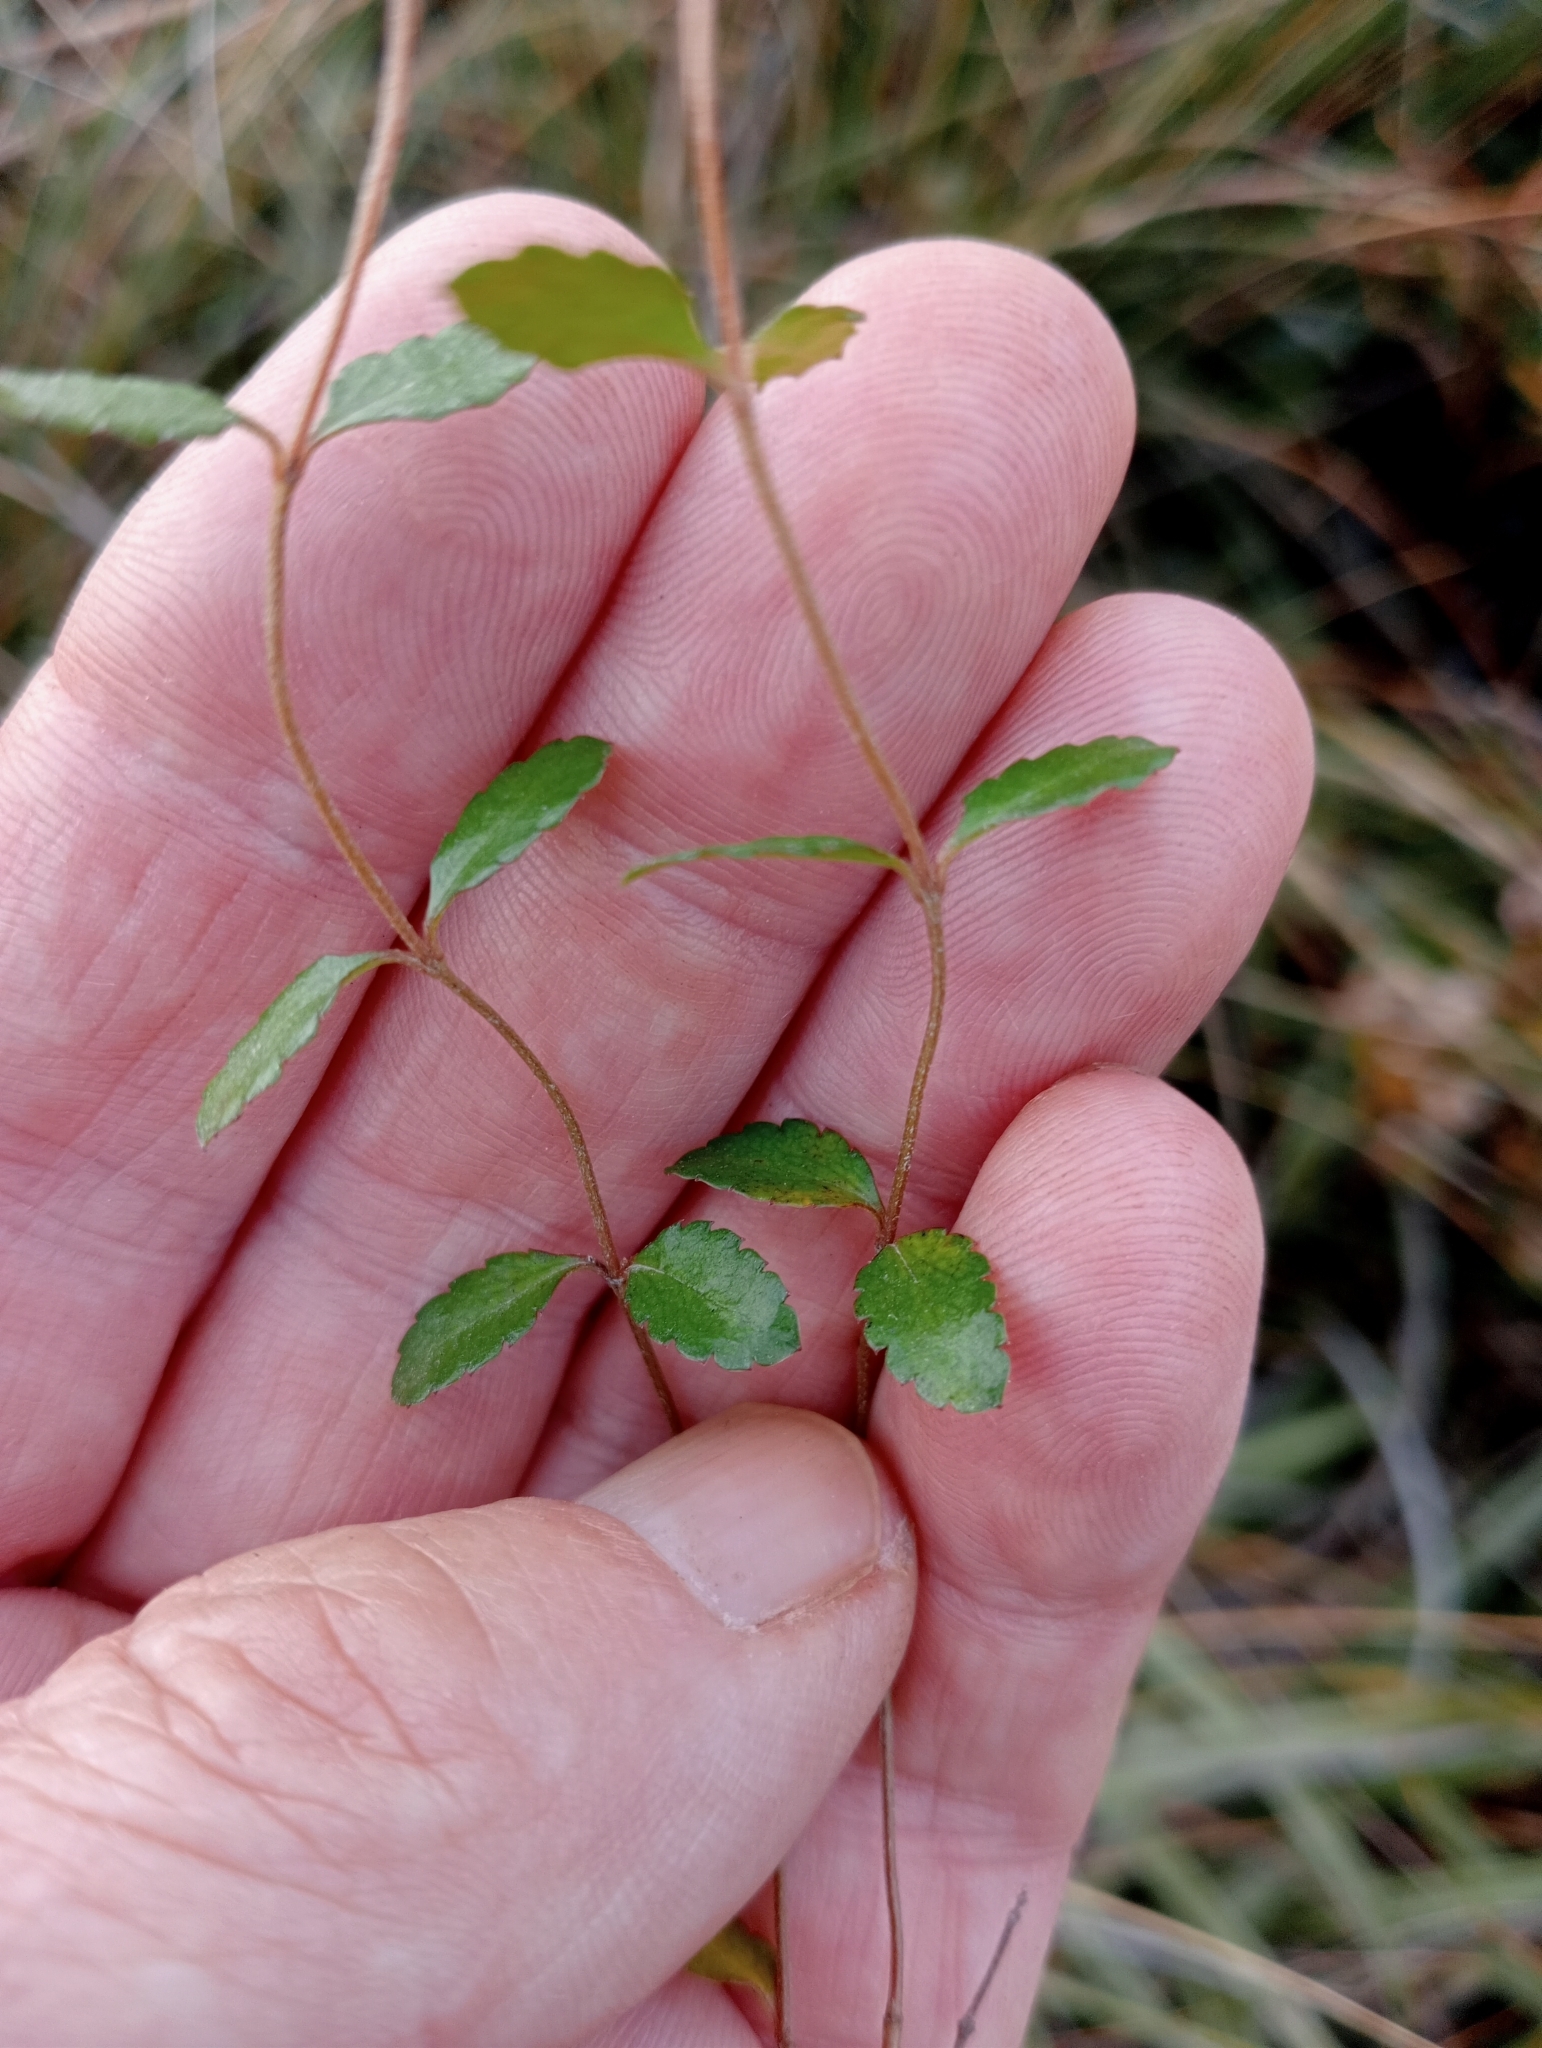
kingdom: Plantae
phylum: Tracheophyta
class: Magnoliopsida
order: Saxifragales
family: Haloragaceae
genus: Gonocarpus
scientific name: Gonocarpus aggregatus
